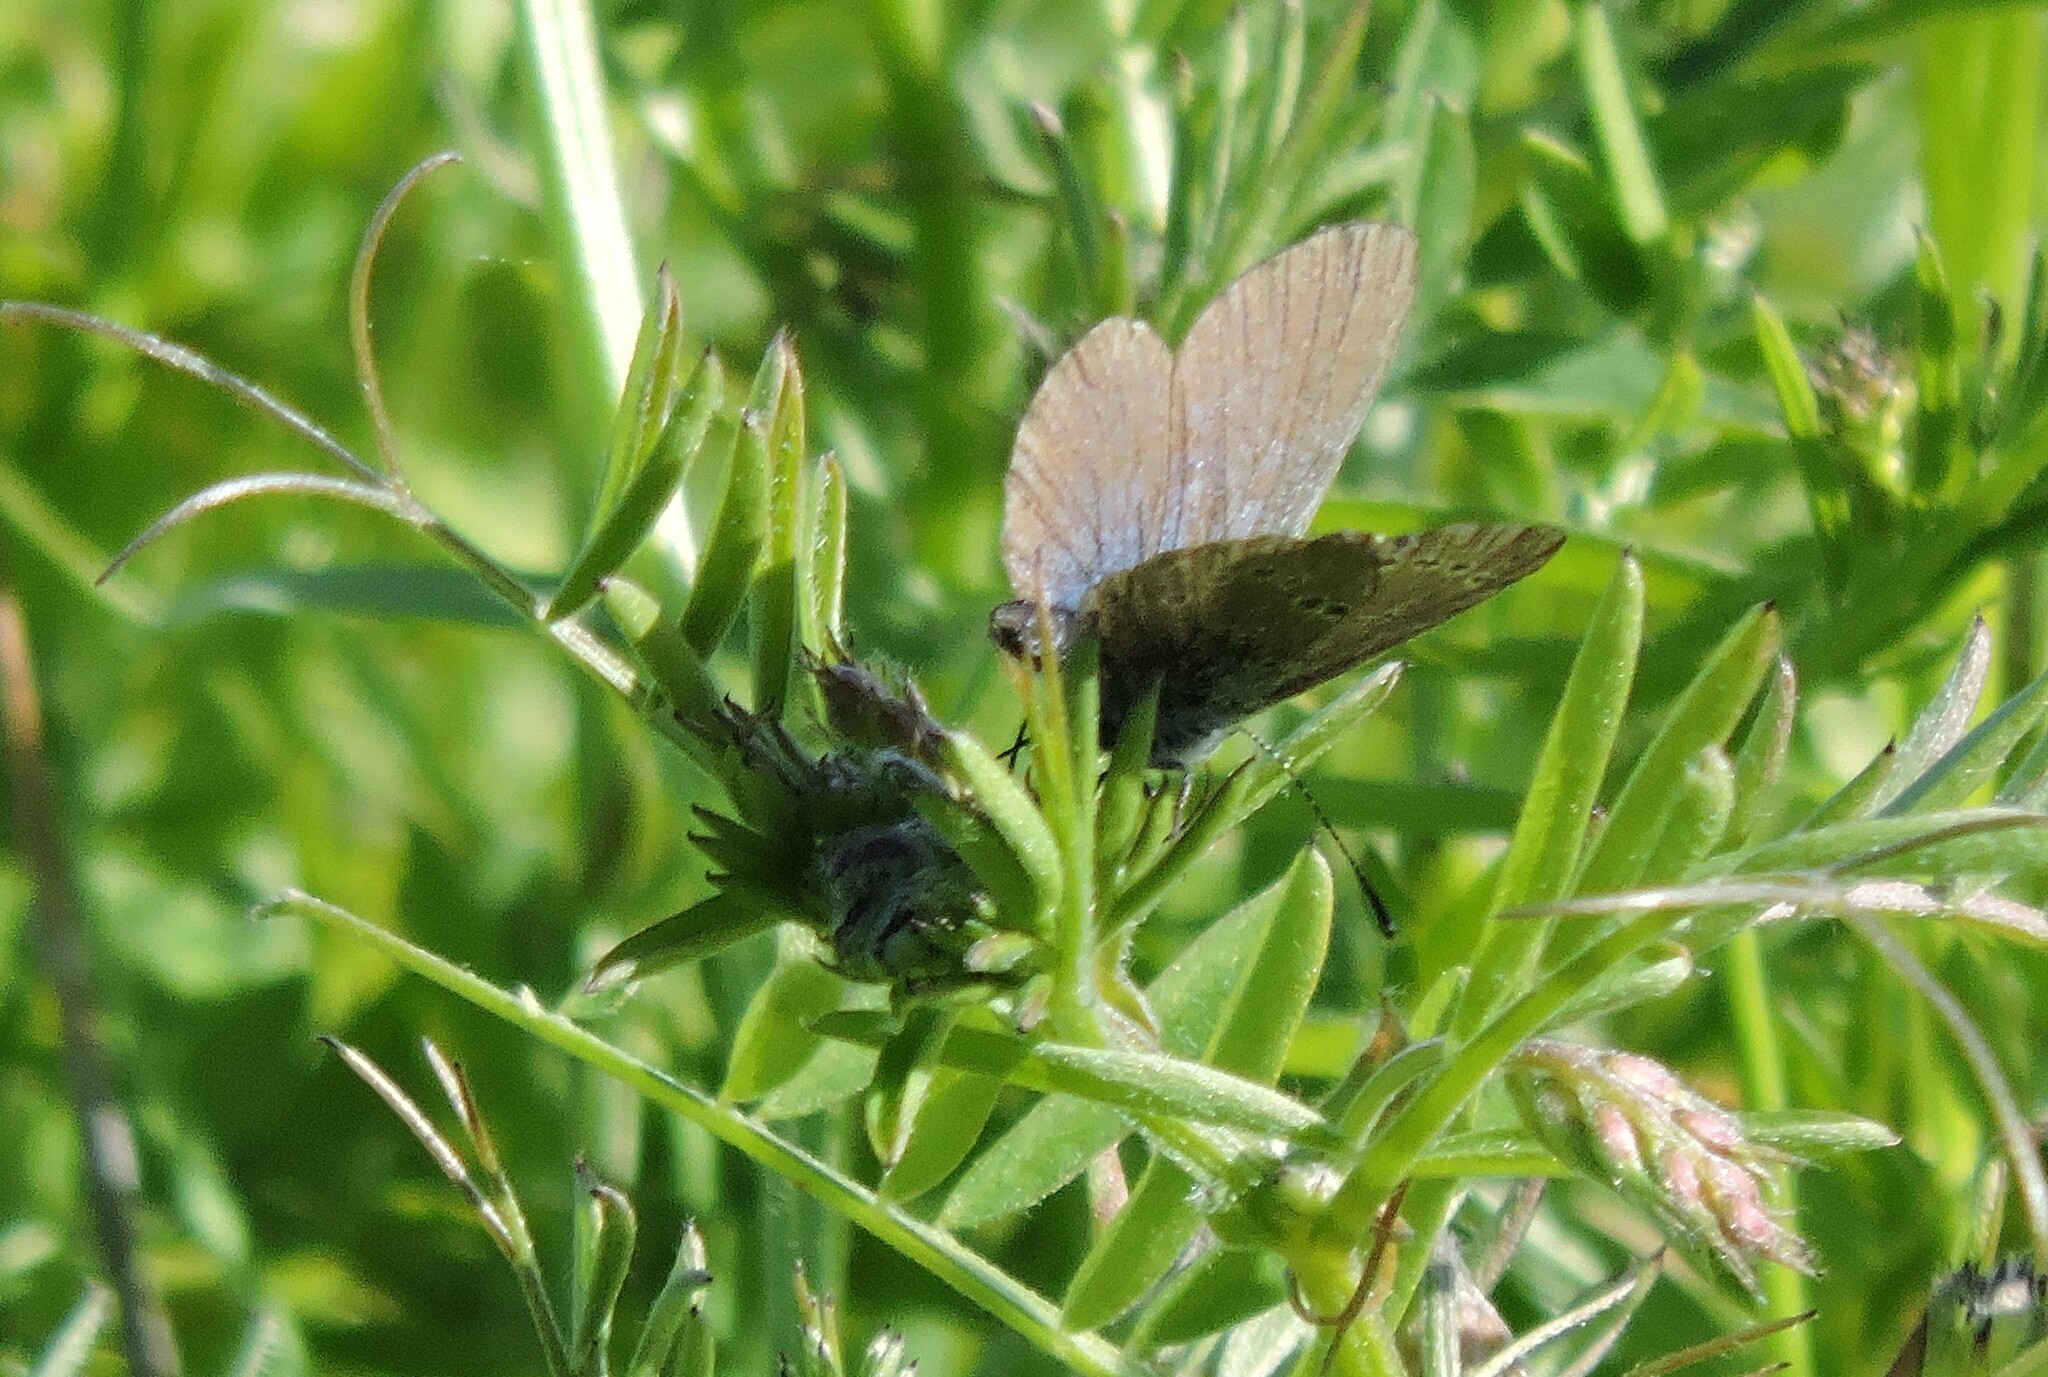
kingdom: Animalia
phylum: Arthropoda
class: Insecta
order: Lepidoptera
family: Lycaenidae
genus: Glaucopsyche
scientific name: Glaucopsyche lygdamus
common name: Silvery blue
